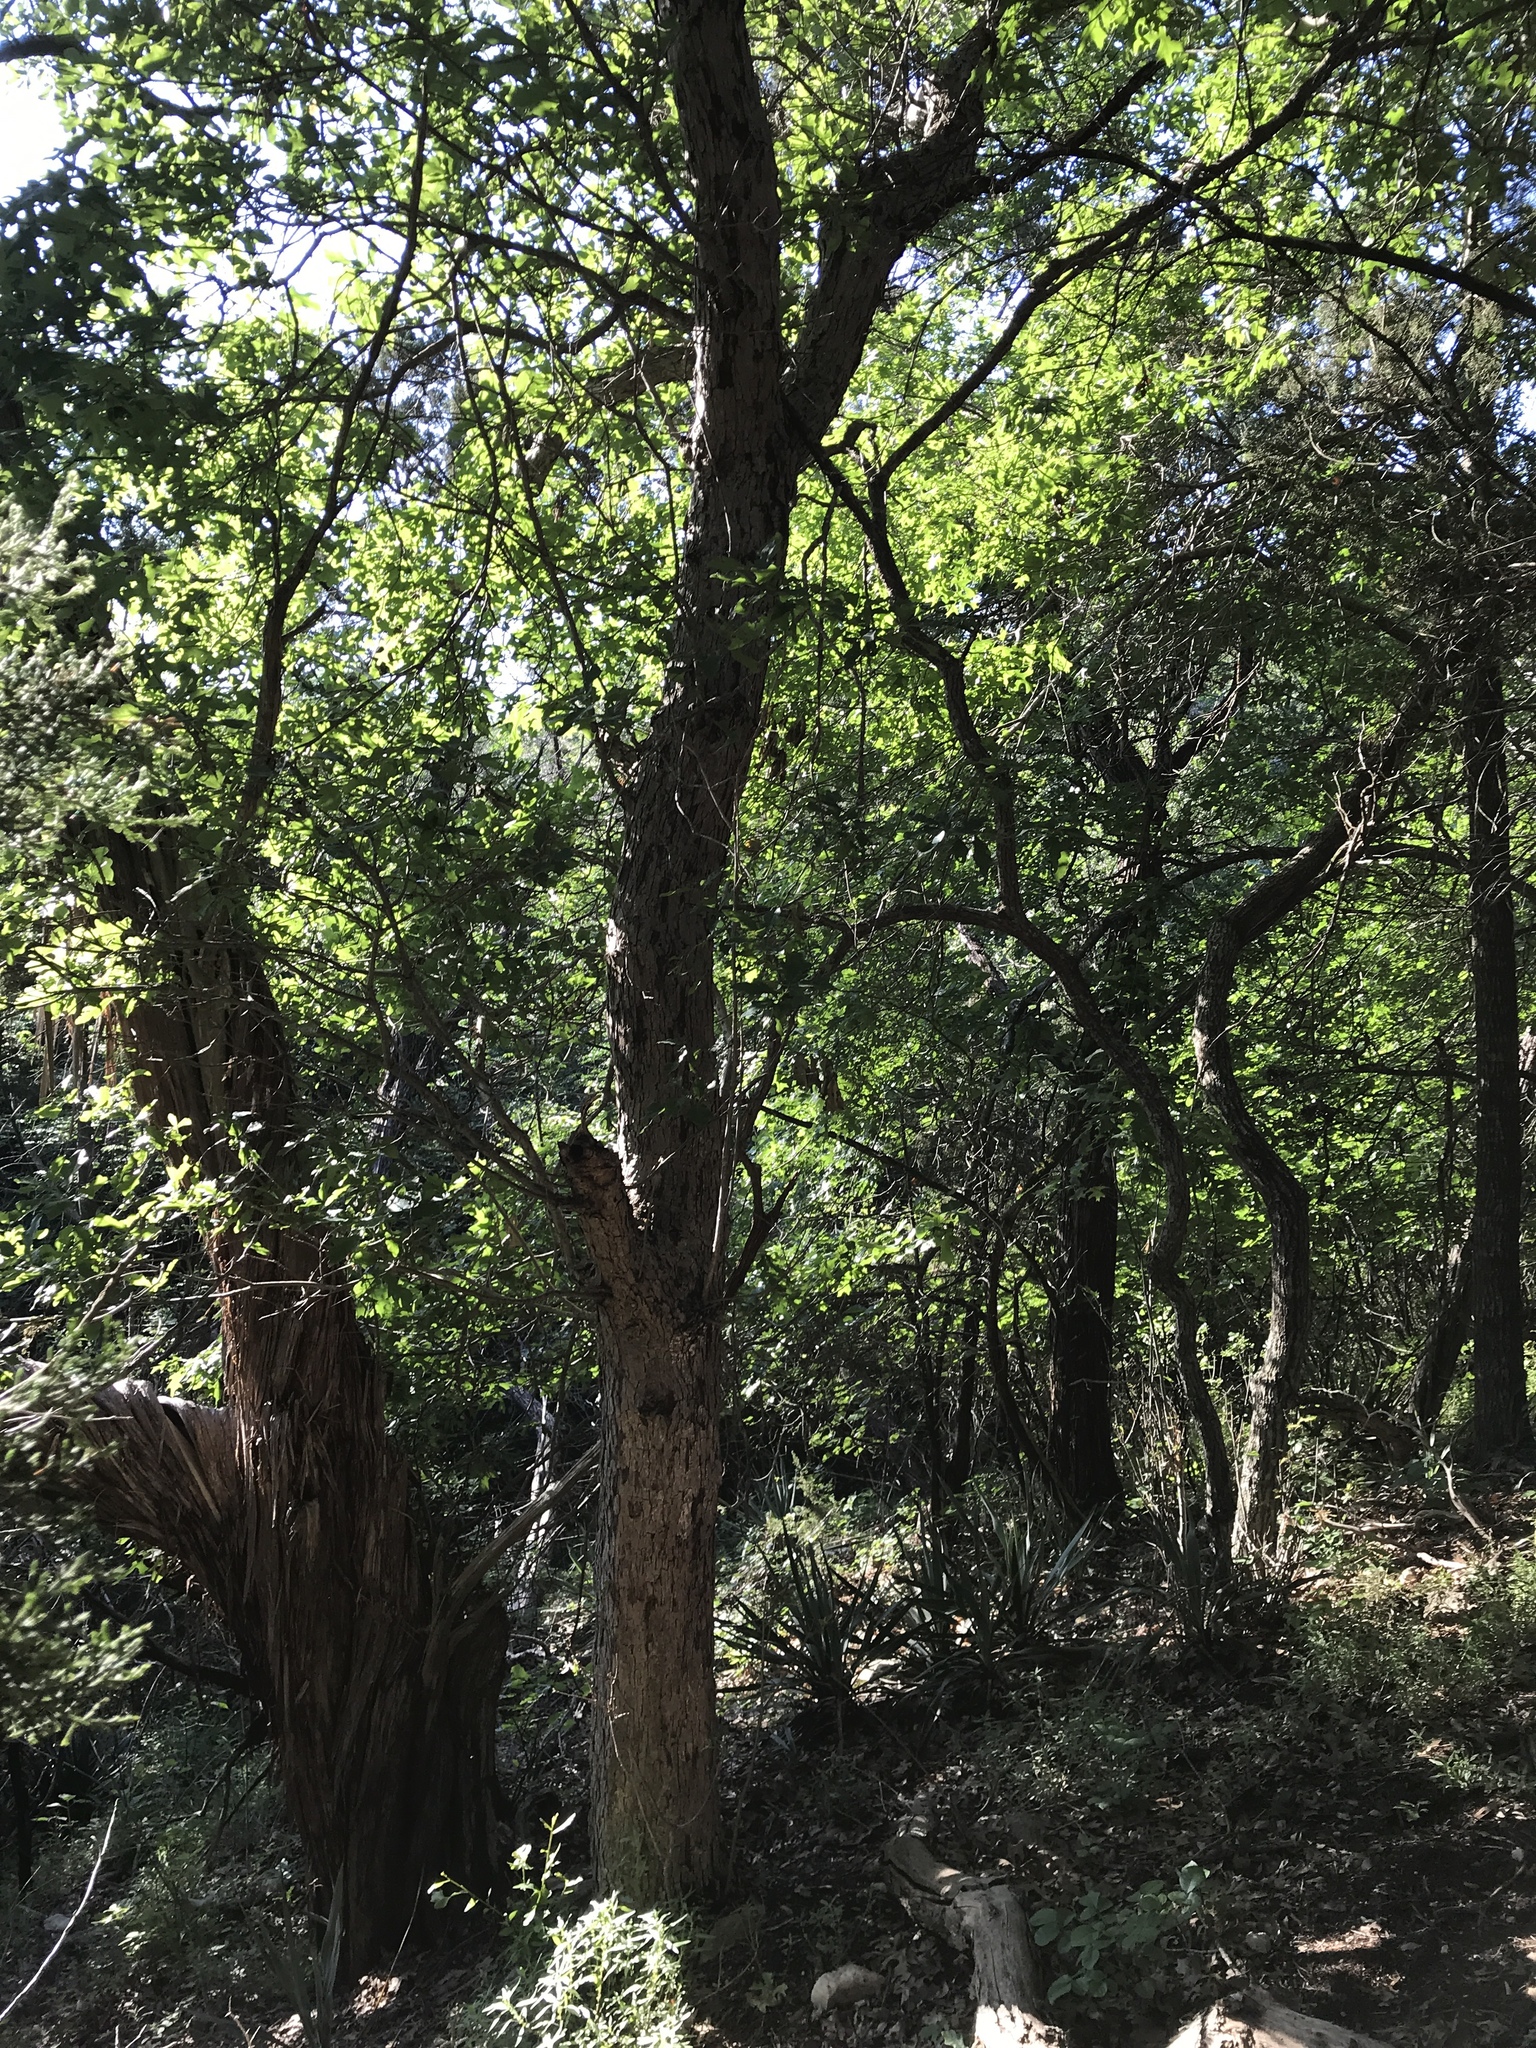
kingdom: Plantae
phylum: Tracheophyta
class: Magnoliopsida
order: Fagales
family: Fagaceae
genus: Quercus
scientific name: Quercus sinuata
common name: Durand oak
